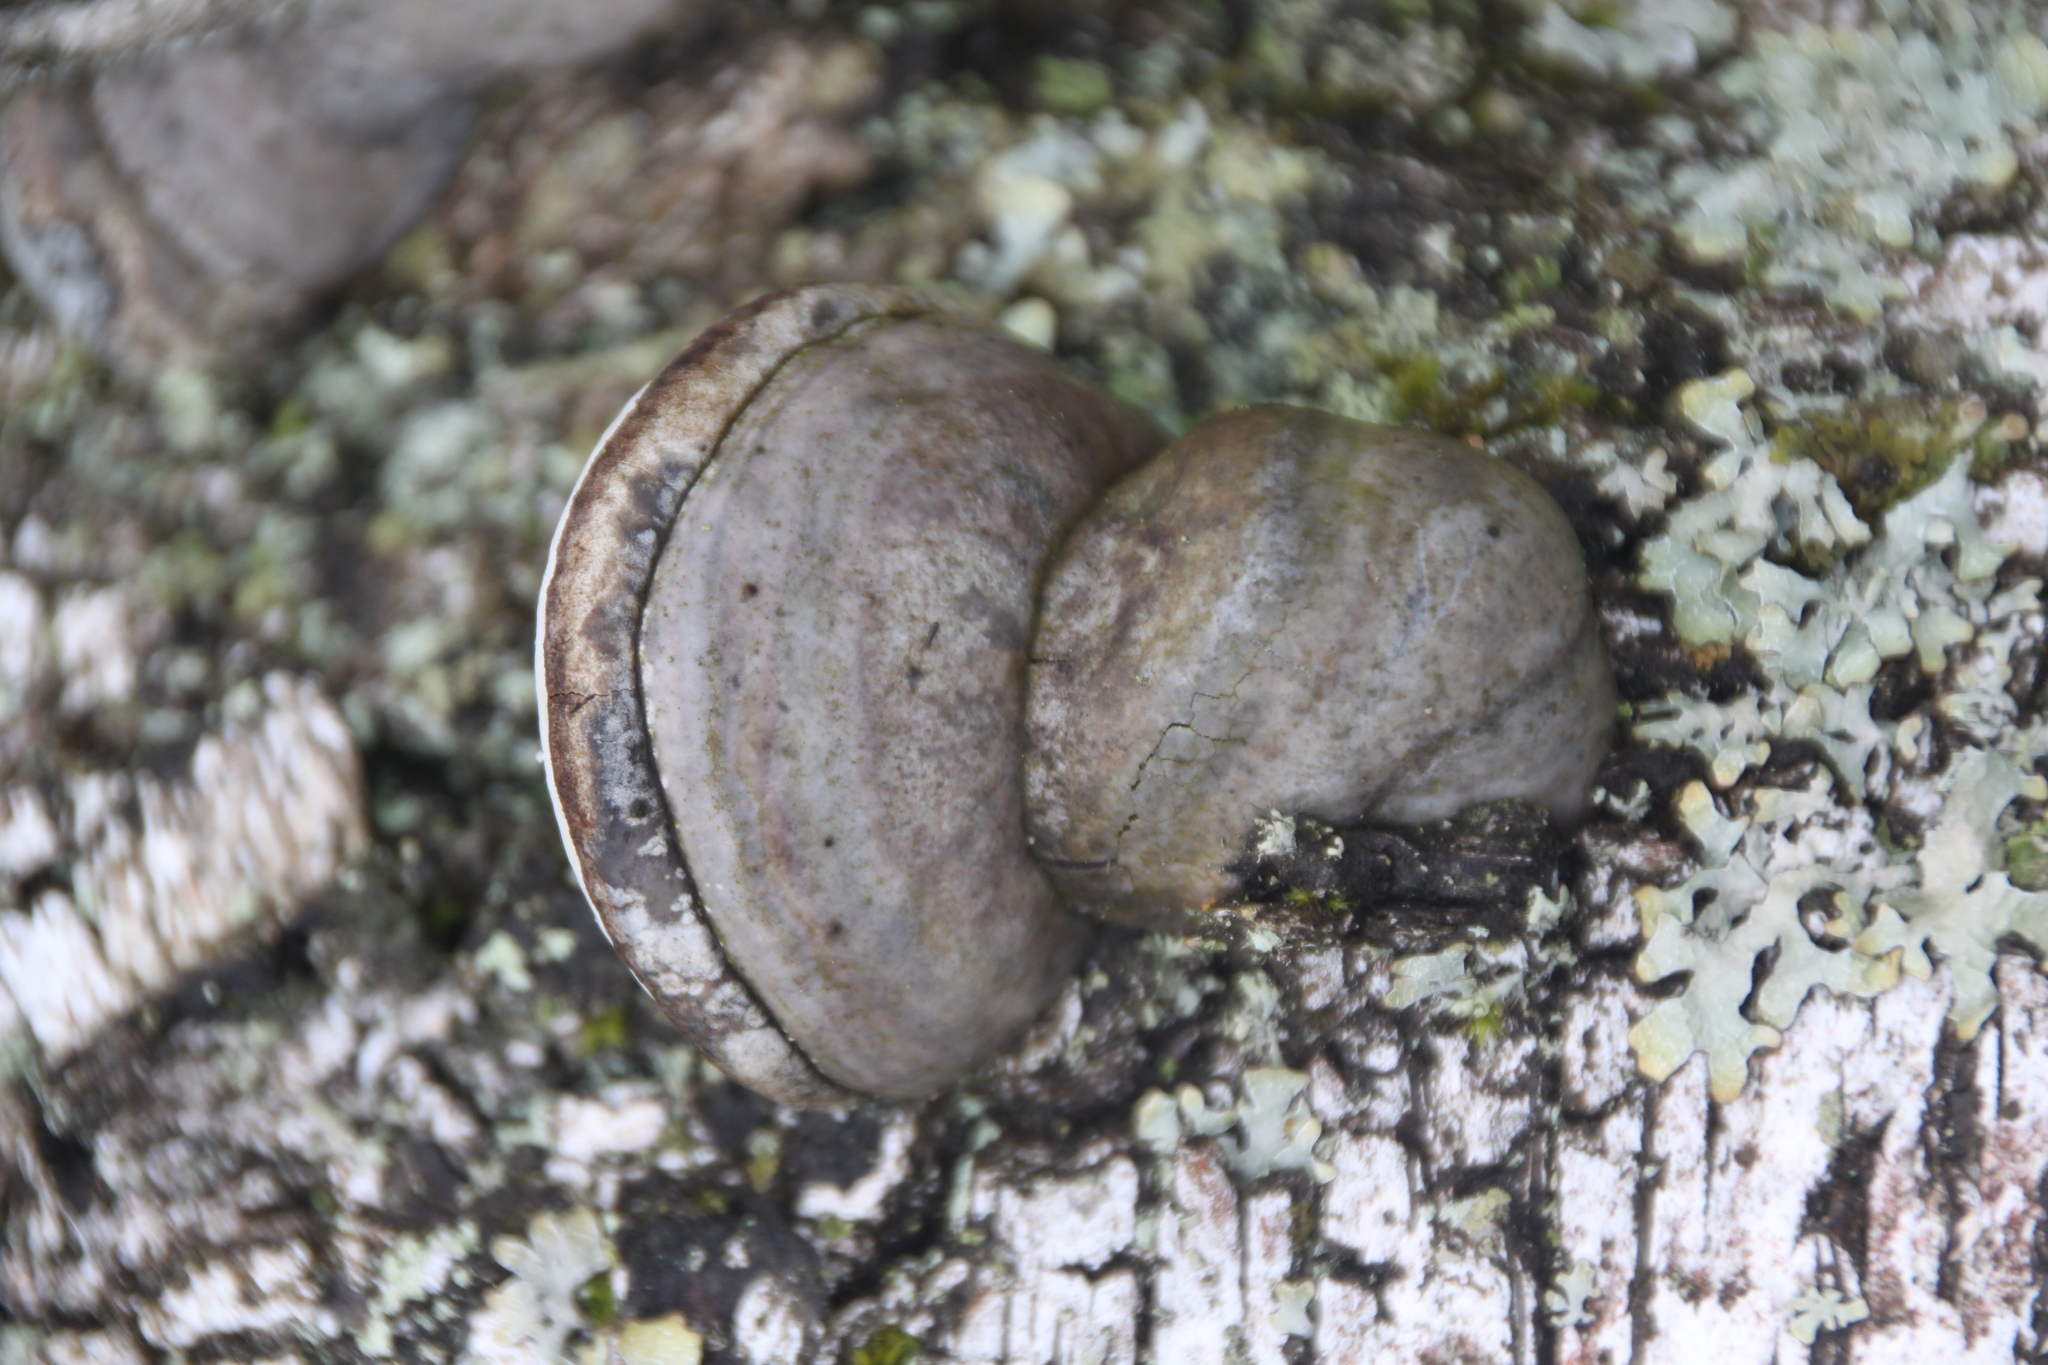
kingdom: Fungi
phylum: Basidiomycota
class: Agaricomycetes
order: Polyporales
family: Polyporaceae
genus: Fomes
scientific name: Fomes fomentarius
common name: Hoof fungus
